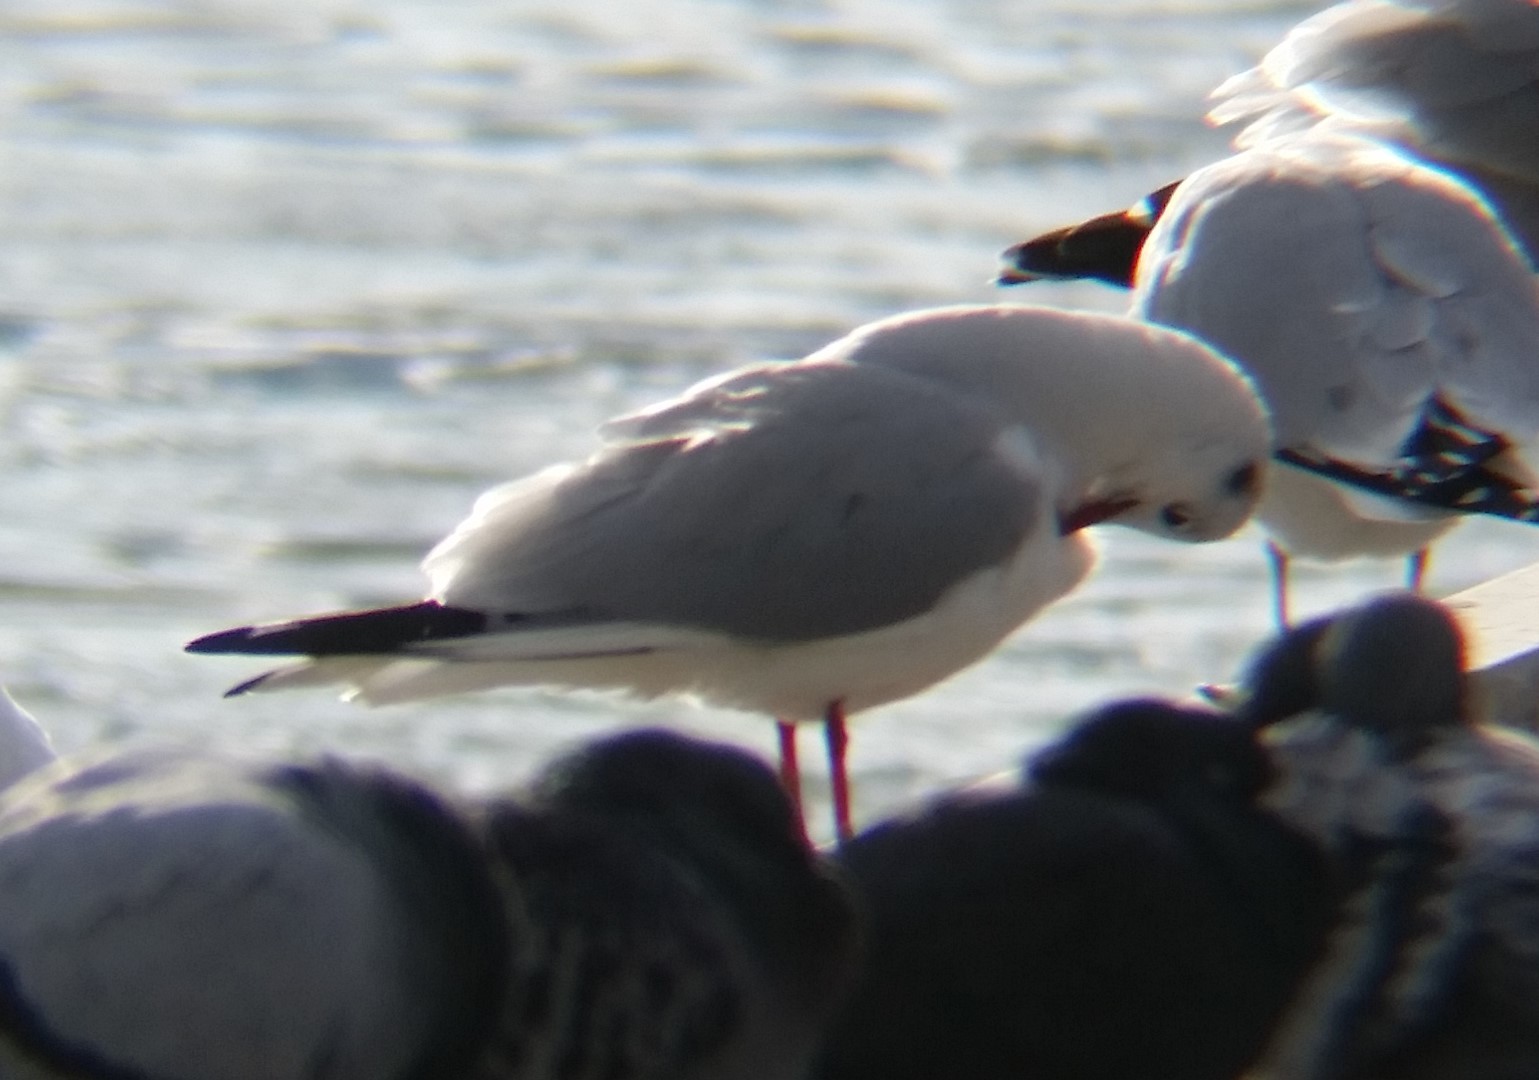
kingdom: Animalia
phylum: Chordata
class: Aves
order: Charadriiformes
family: Laridae
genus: Chroicocephalus
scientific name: Chroicocephalus ridibundus
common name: Black-headed gull
